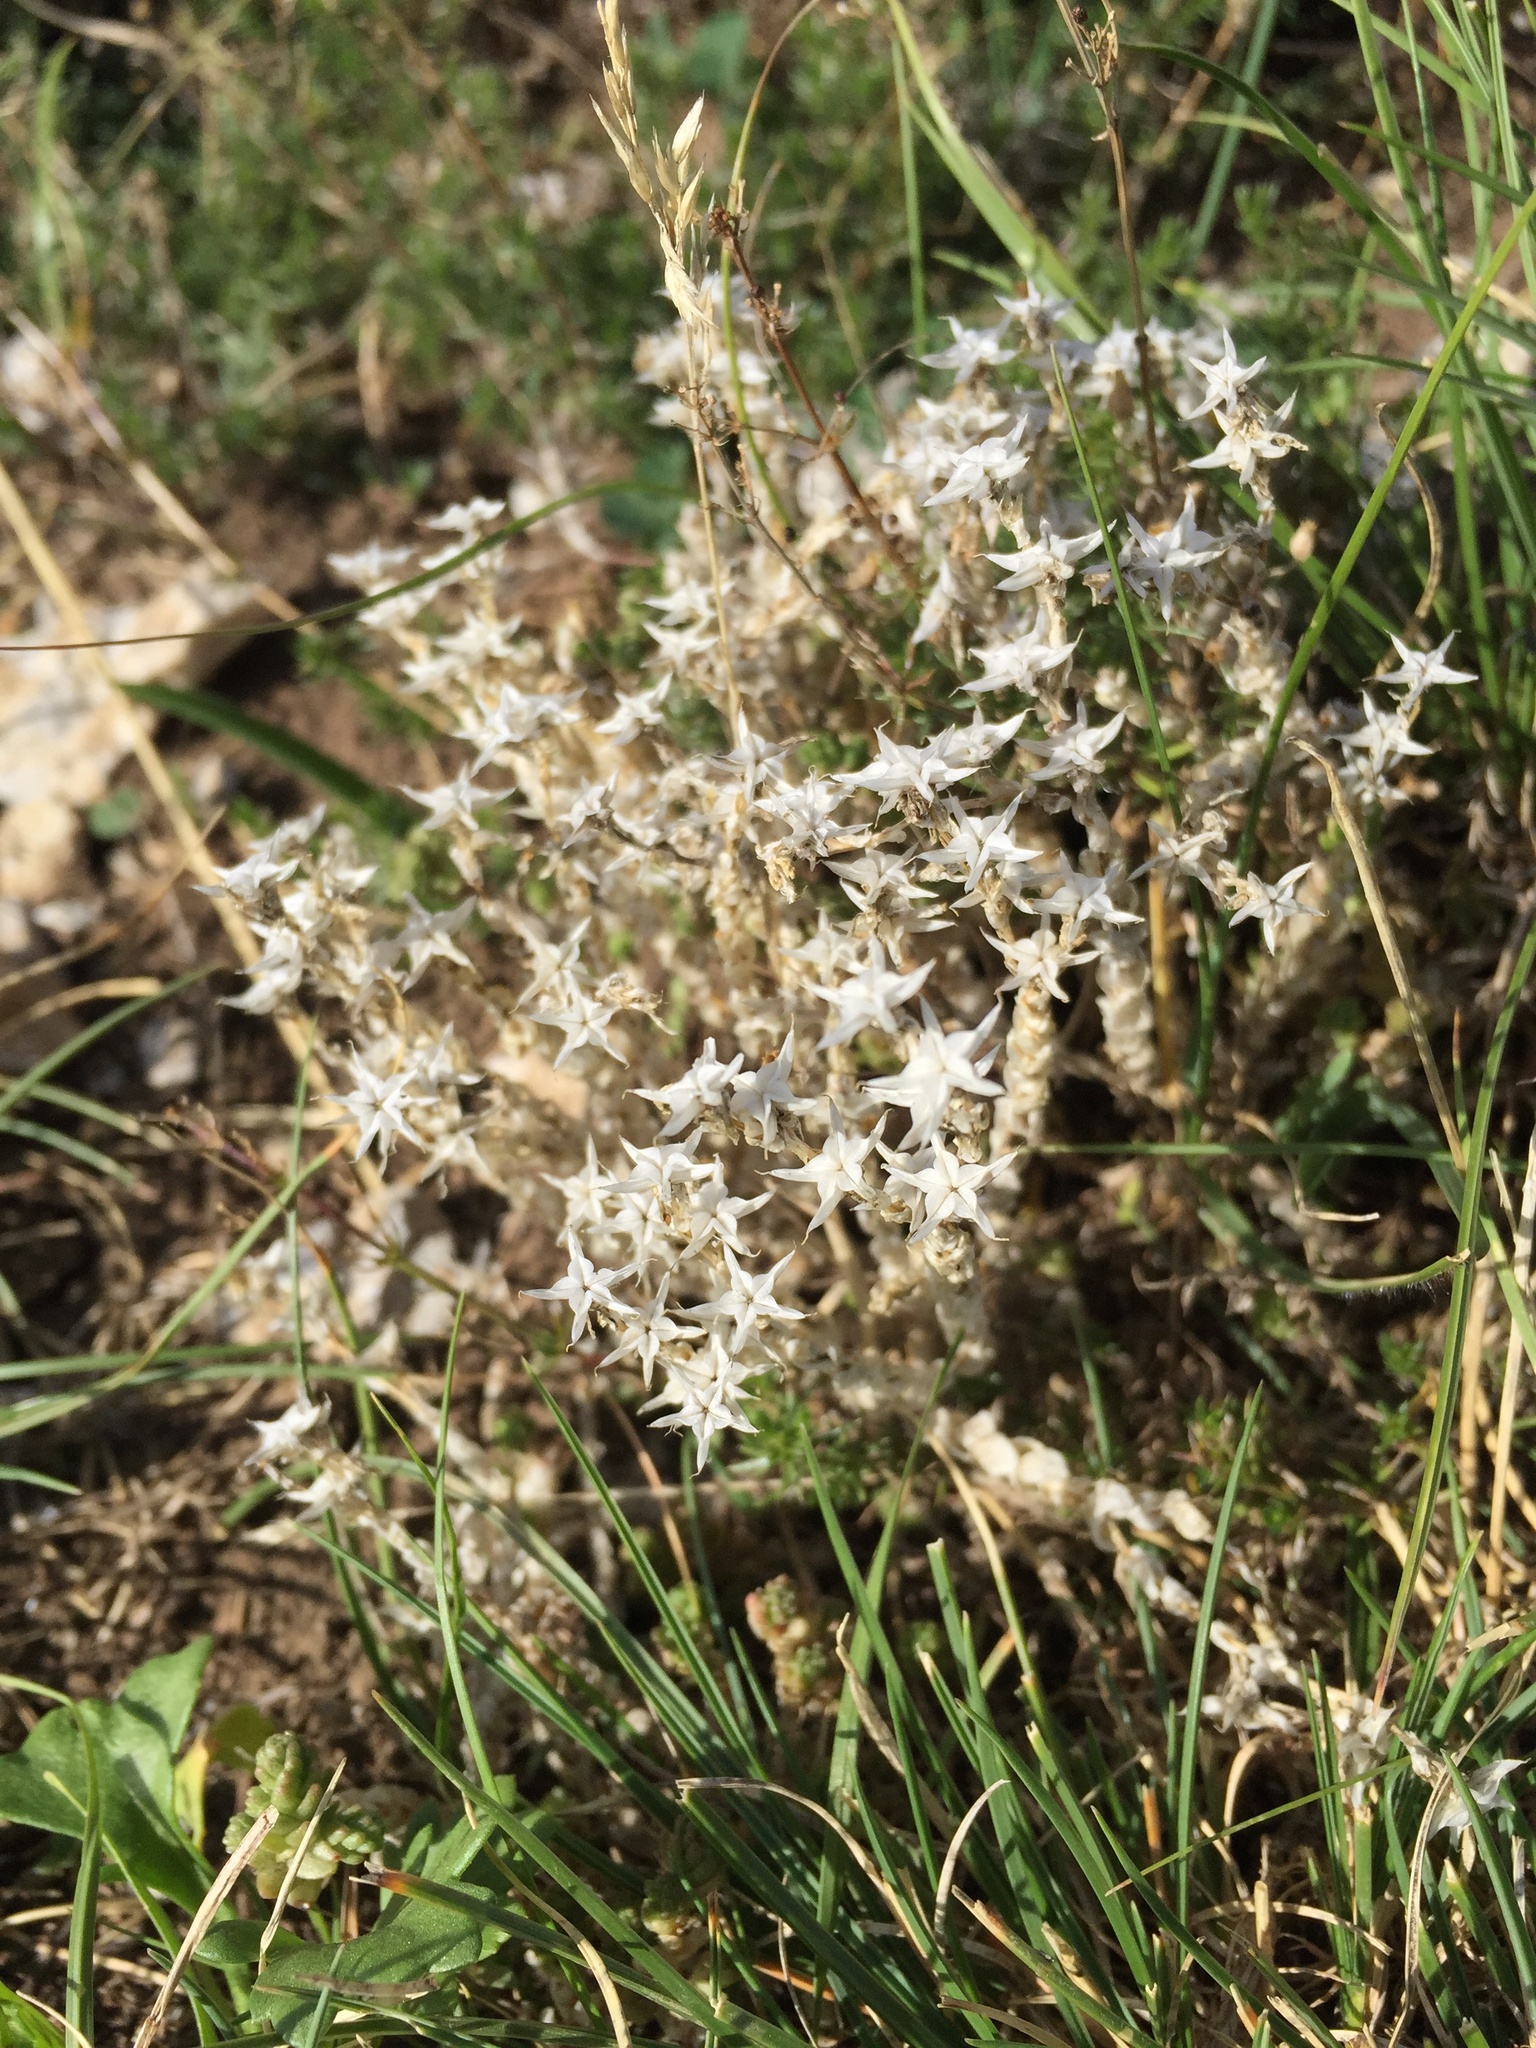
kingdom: Plantae
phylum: Tracheophyta
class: Magnoliopsida
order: Saxifragales
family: Crassulaceae
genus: Sedum
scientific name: Sedum acre
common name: Biting stonecrop
